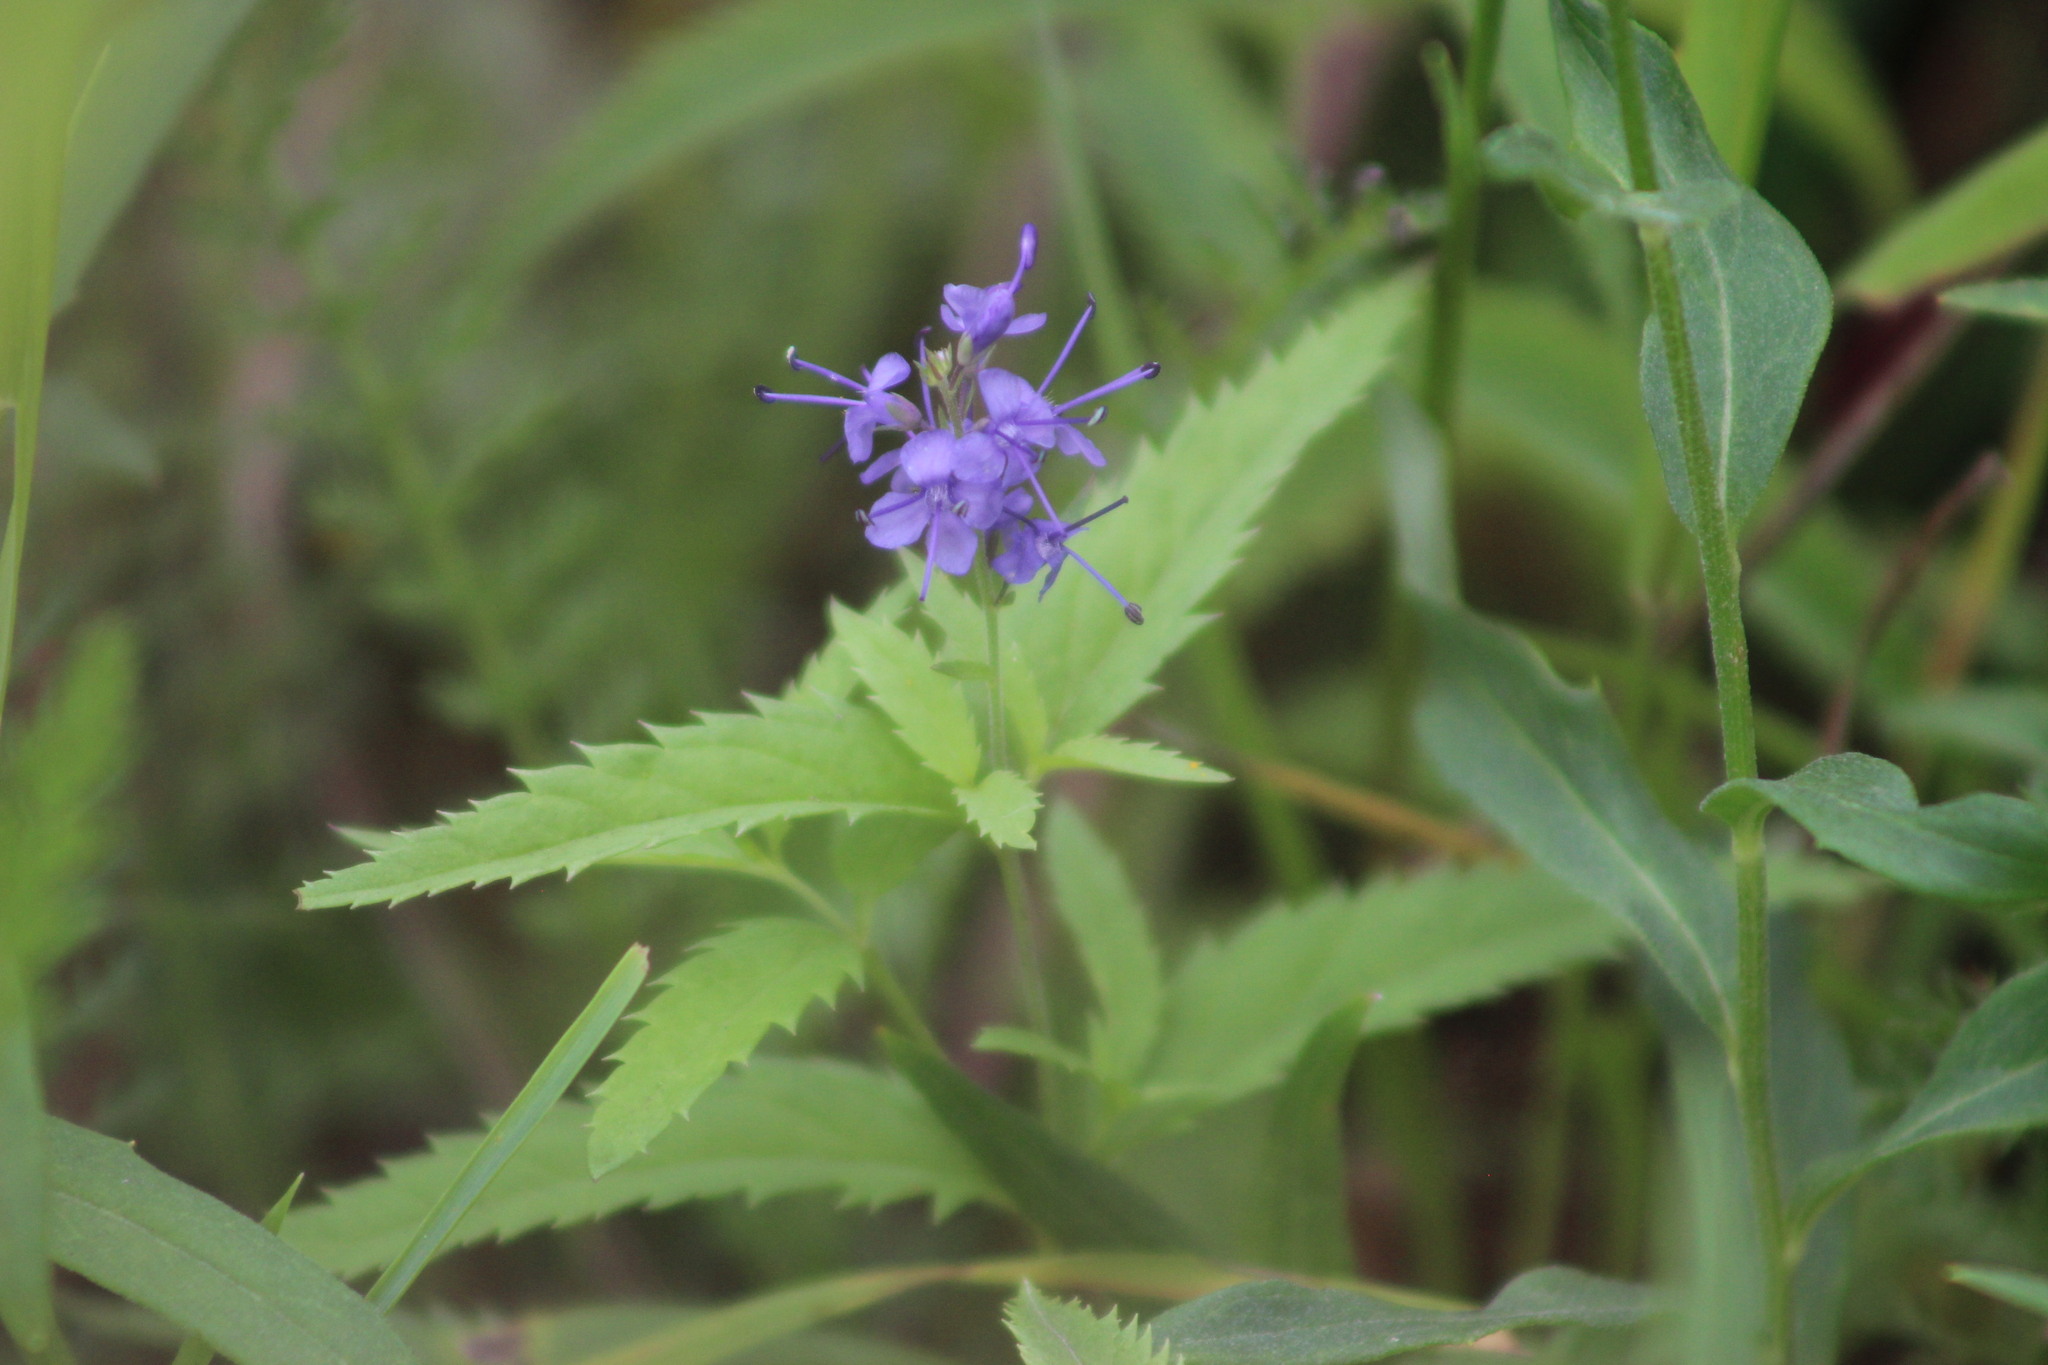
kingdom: Plantae
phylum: Tracheophyta
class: Magnoliopsida
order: Lamiales
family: Plantaginaceae
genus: Veronica
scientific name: Veronica longifolia
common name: Garden speedwell
